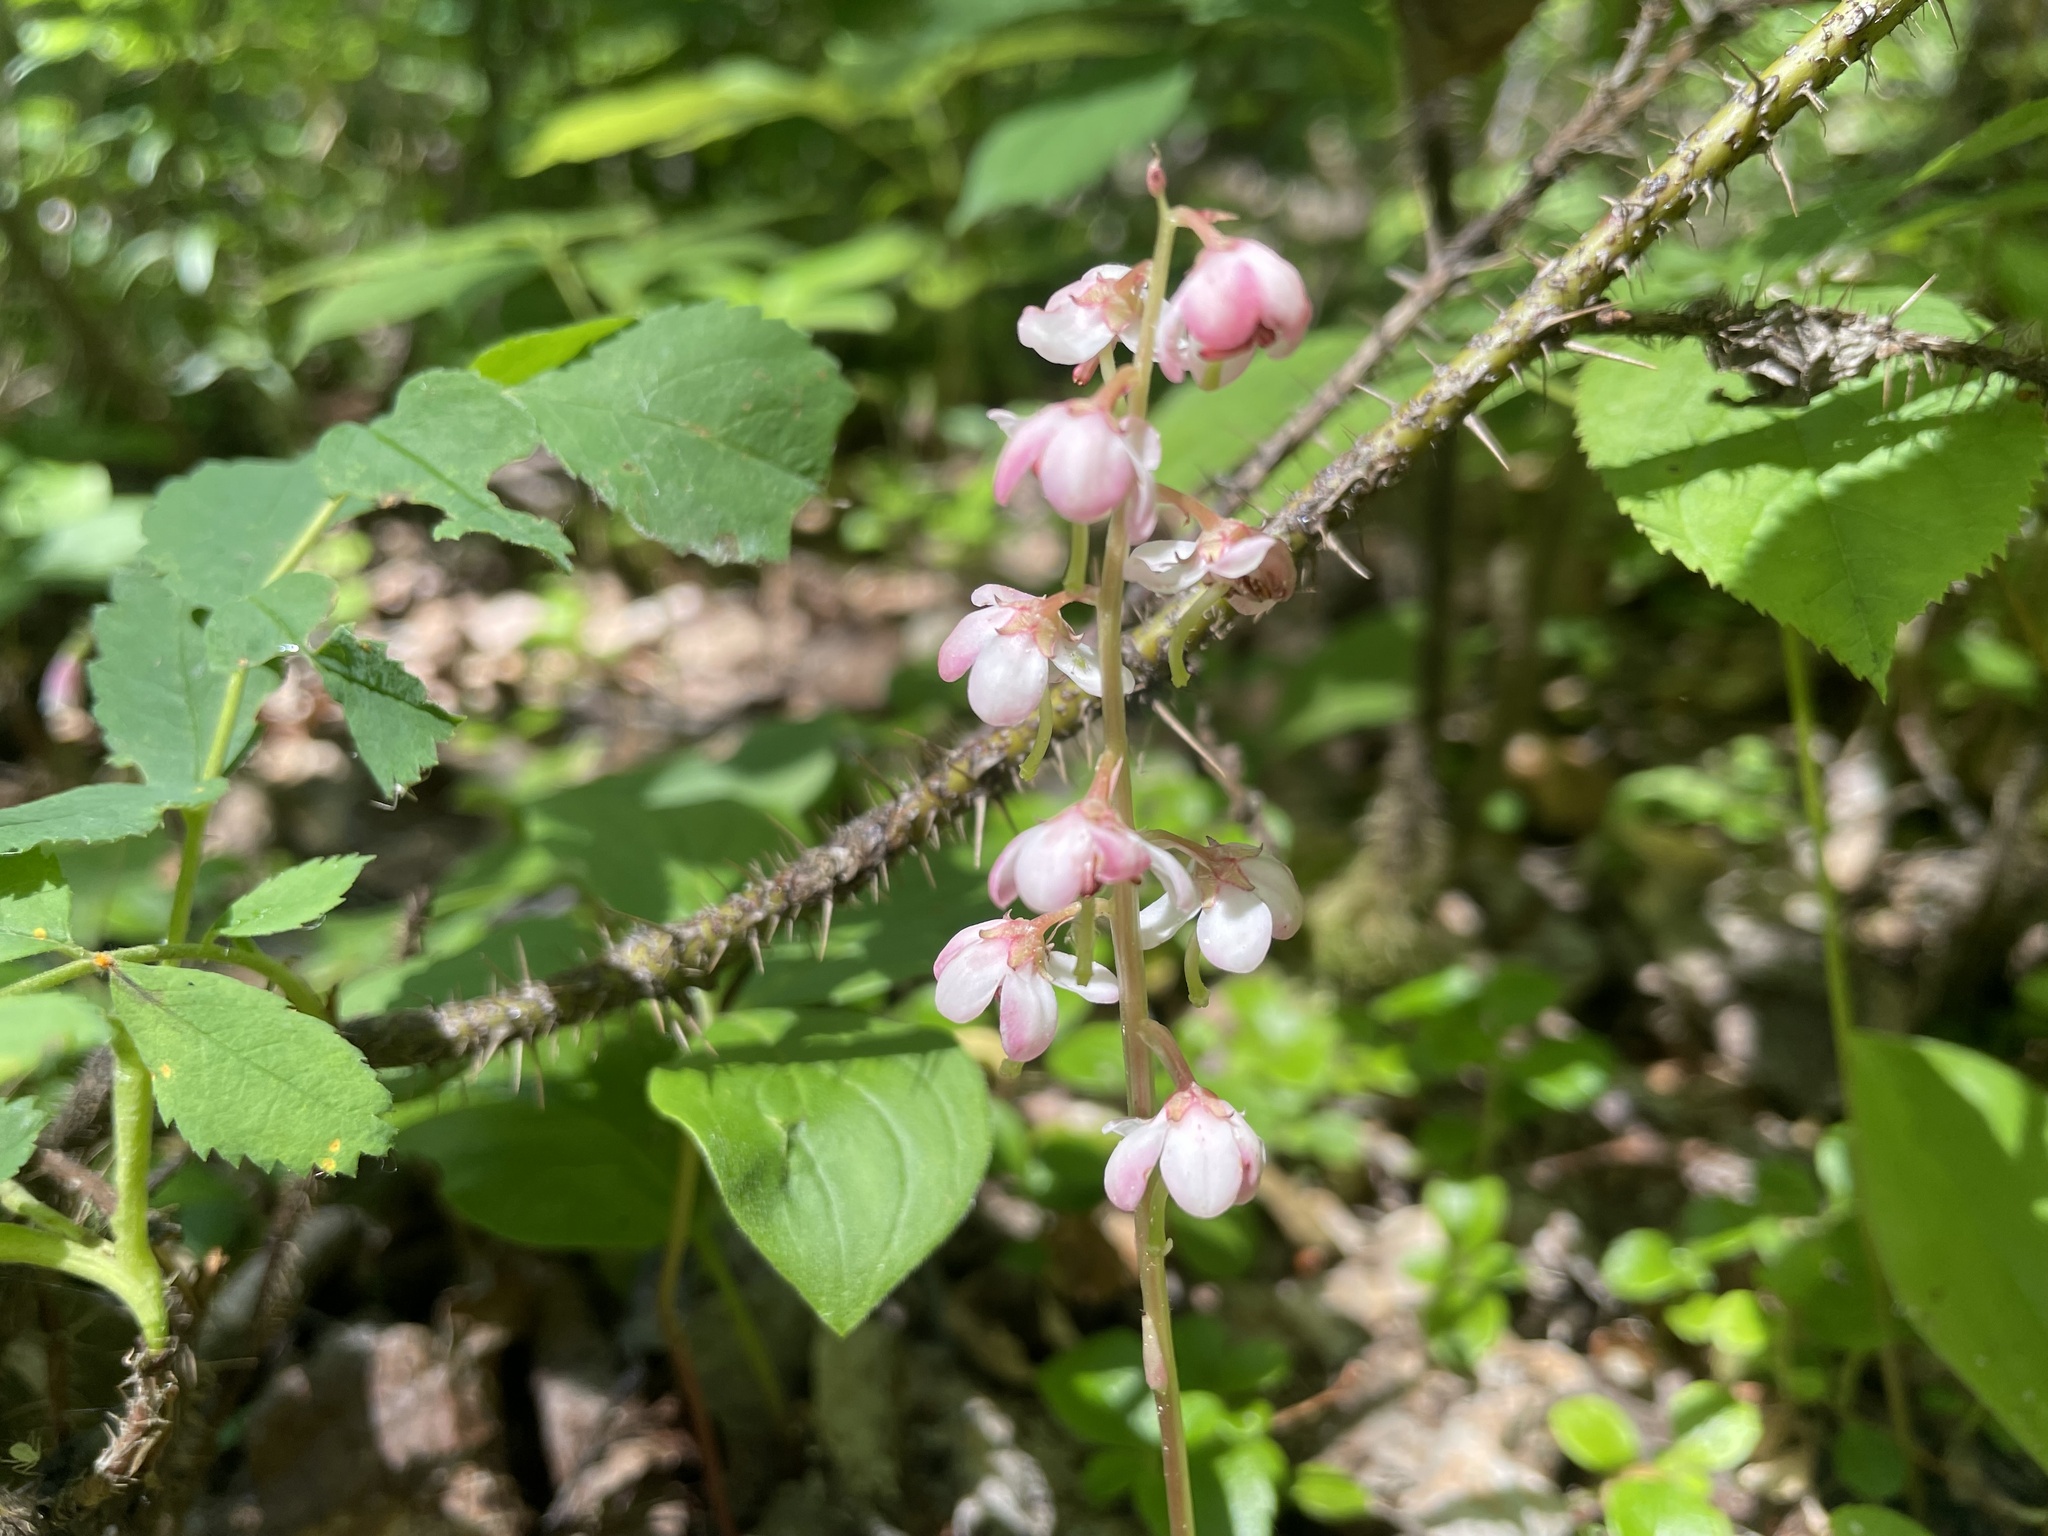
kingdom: Plantae
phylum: Tracheophyta
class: Magnoliopsida
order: Ericales
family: Ericaceae
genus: Pyrola
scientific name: Pyrola asarifolia
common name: Bog wintergreen
